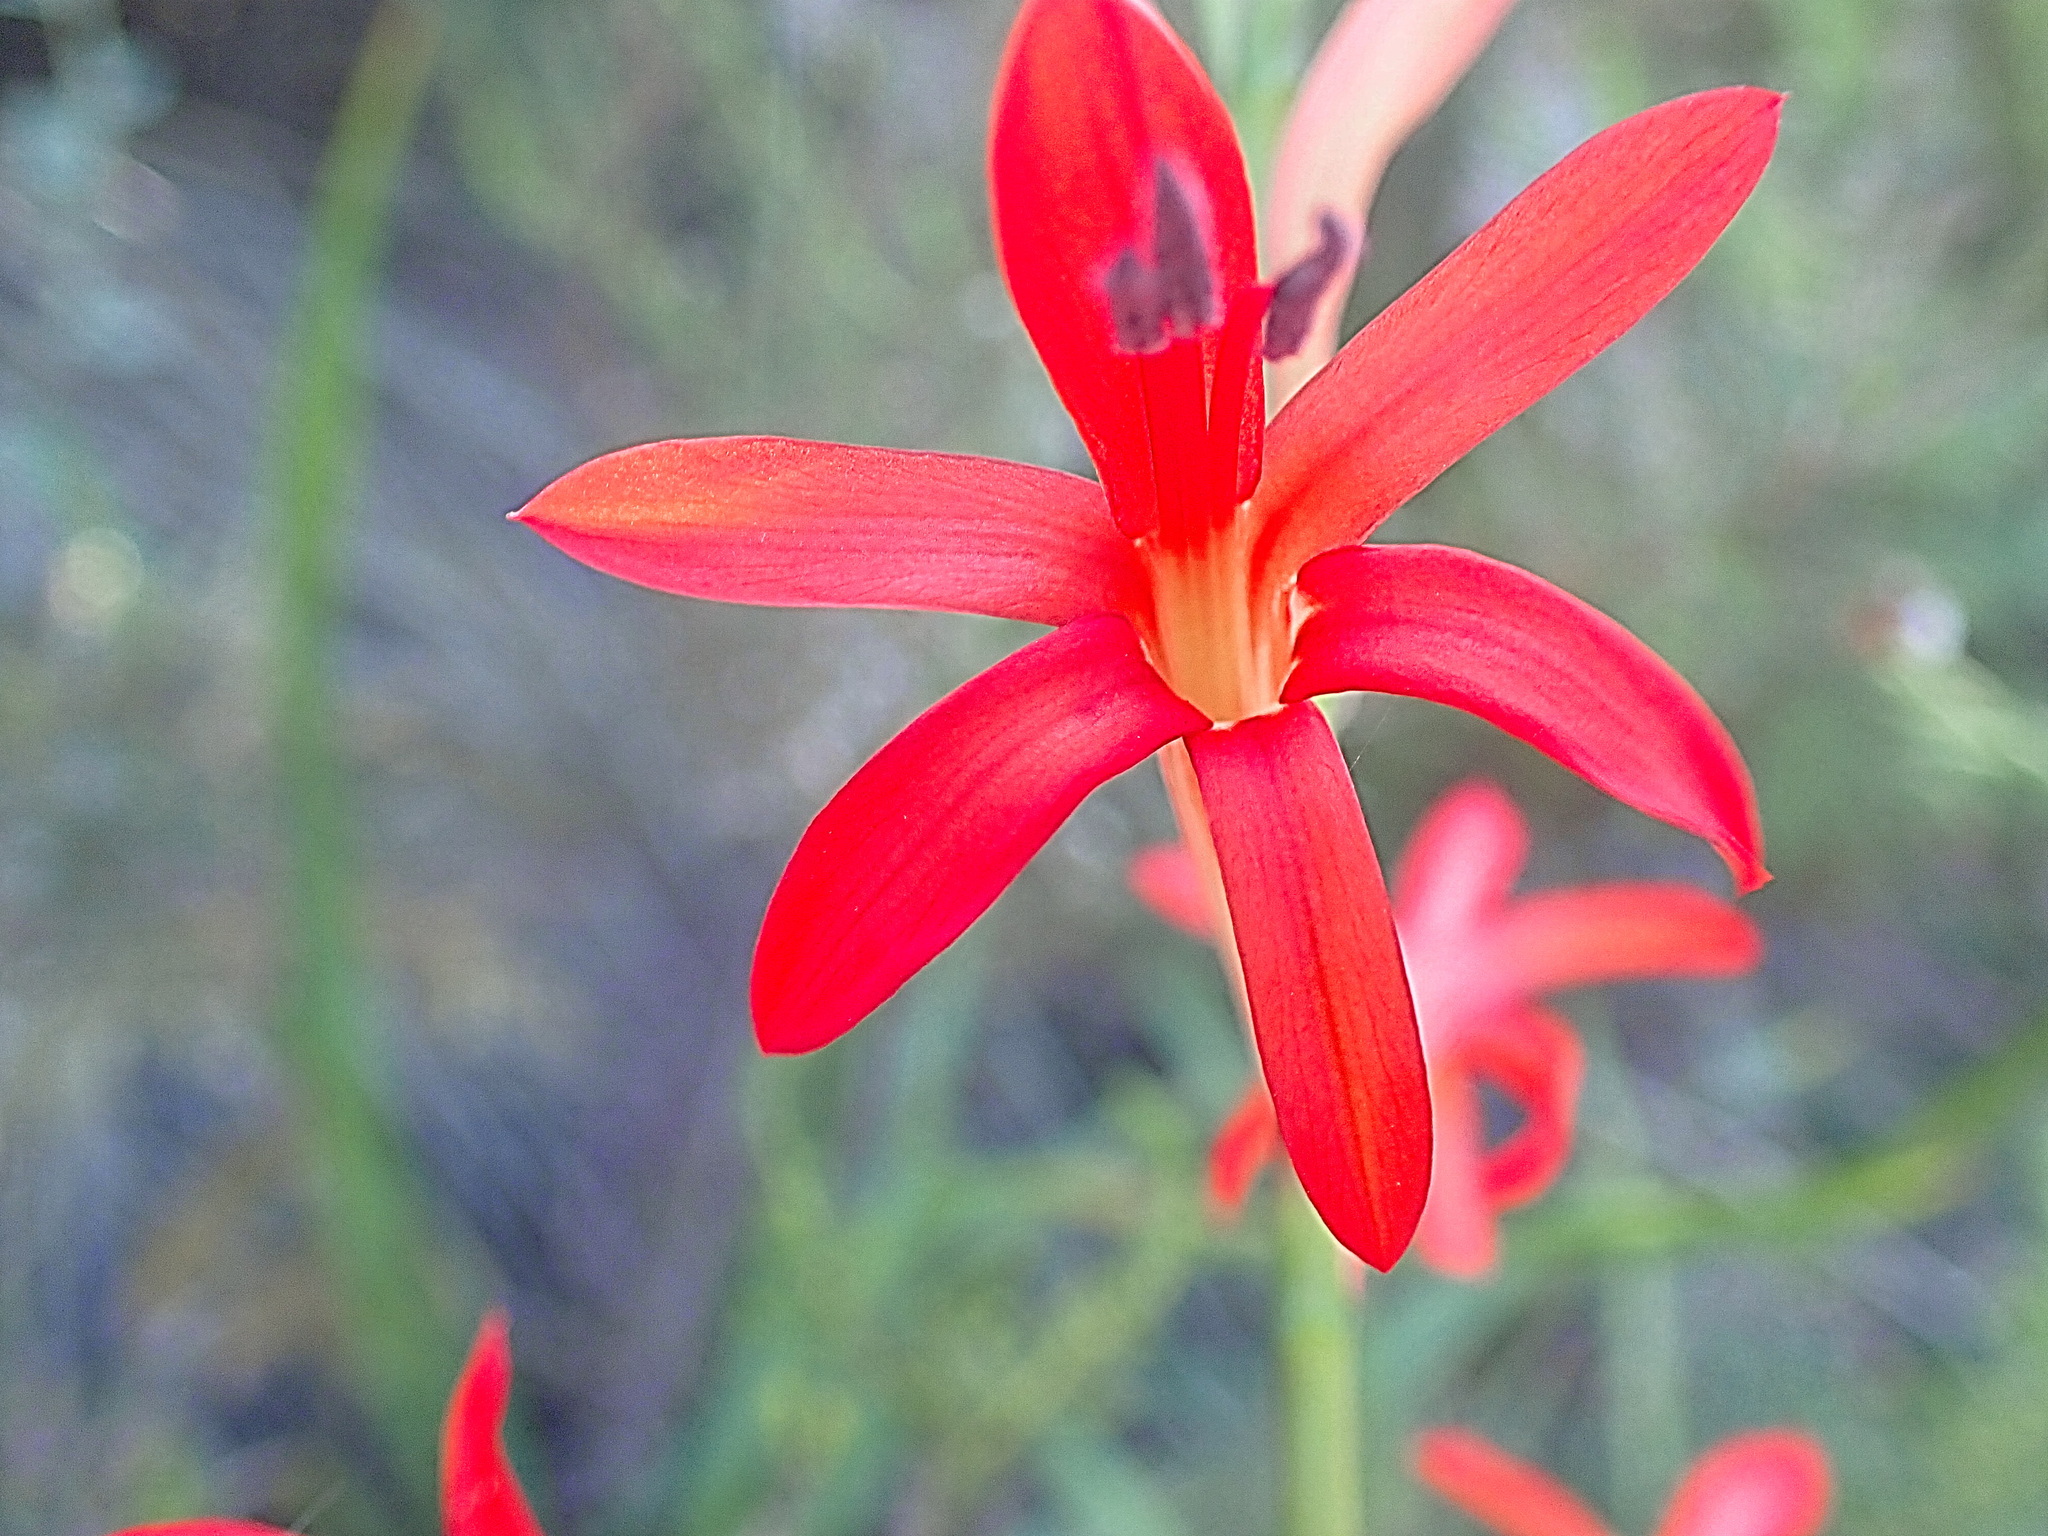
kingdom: Plantae
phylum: Tracheophyta
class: Liliopsida
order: Asparagales
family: Iridaceae
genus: Watsonia
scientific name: Watsonia angusta
